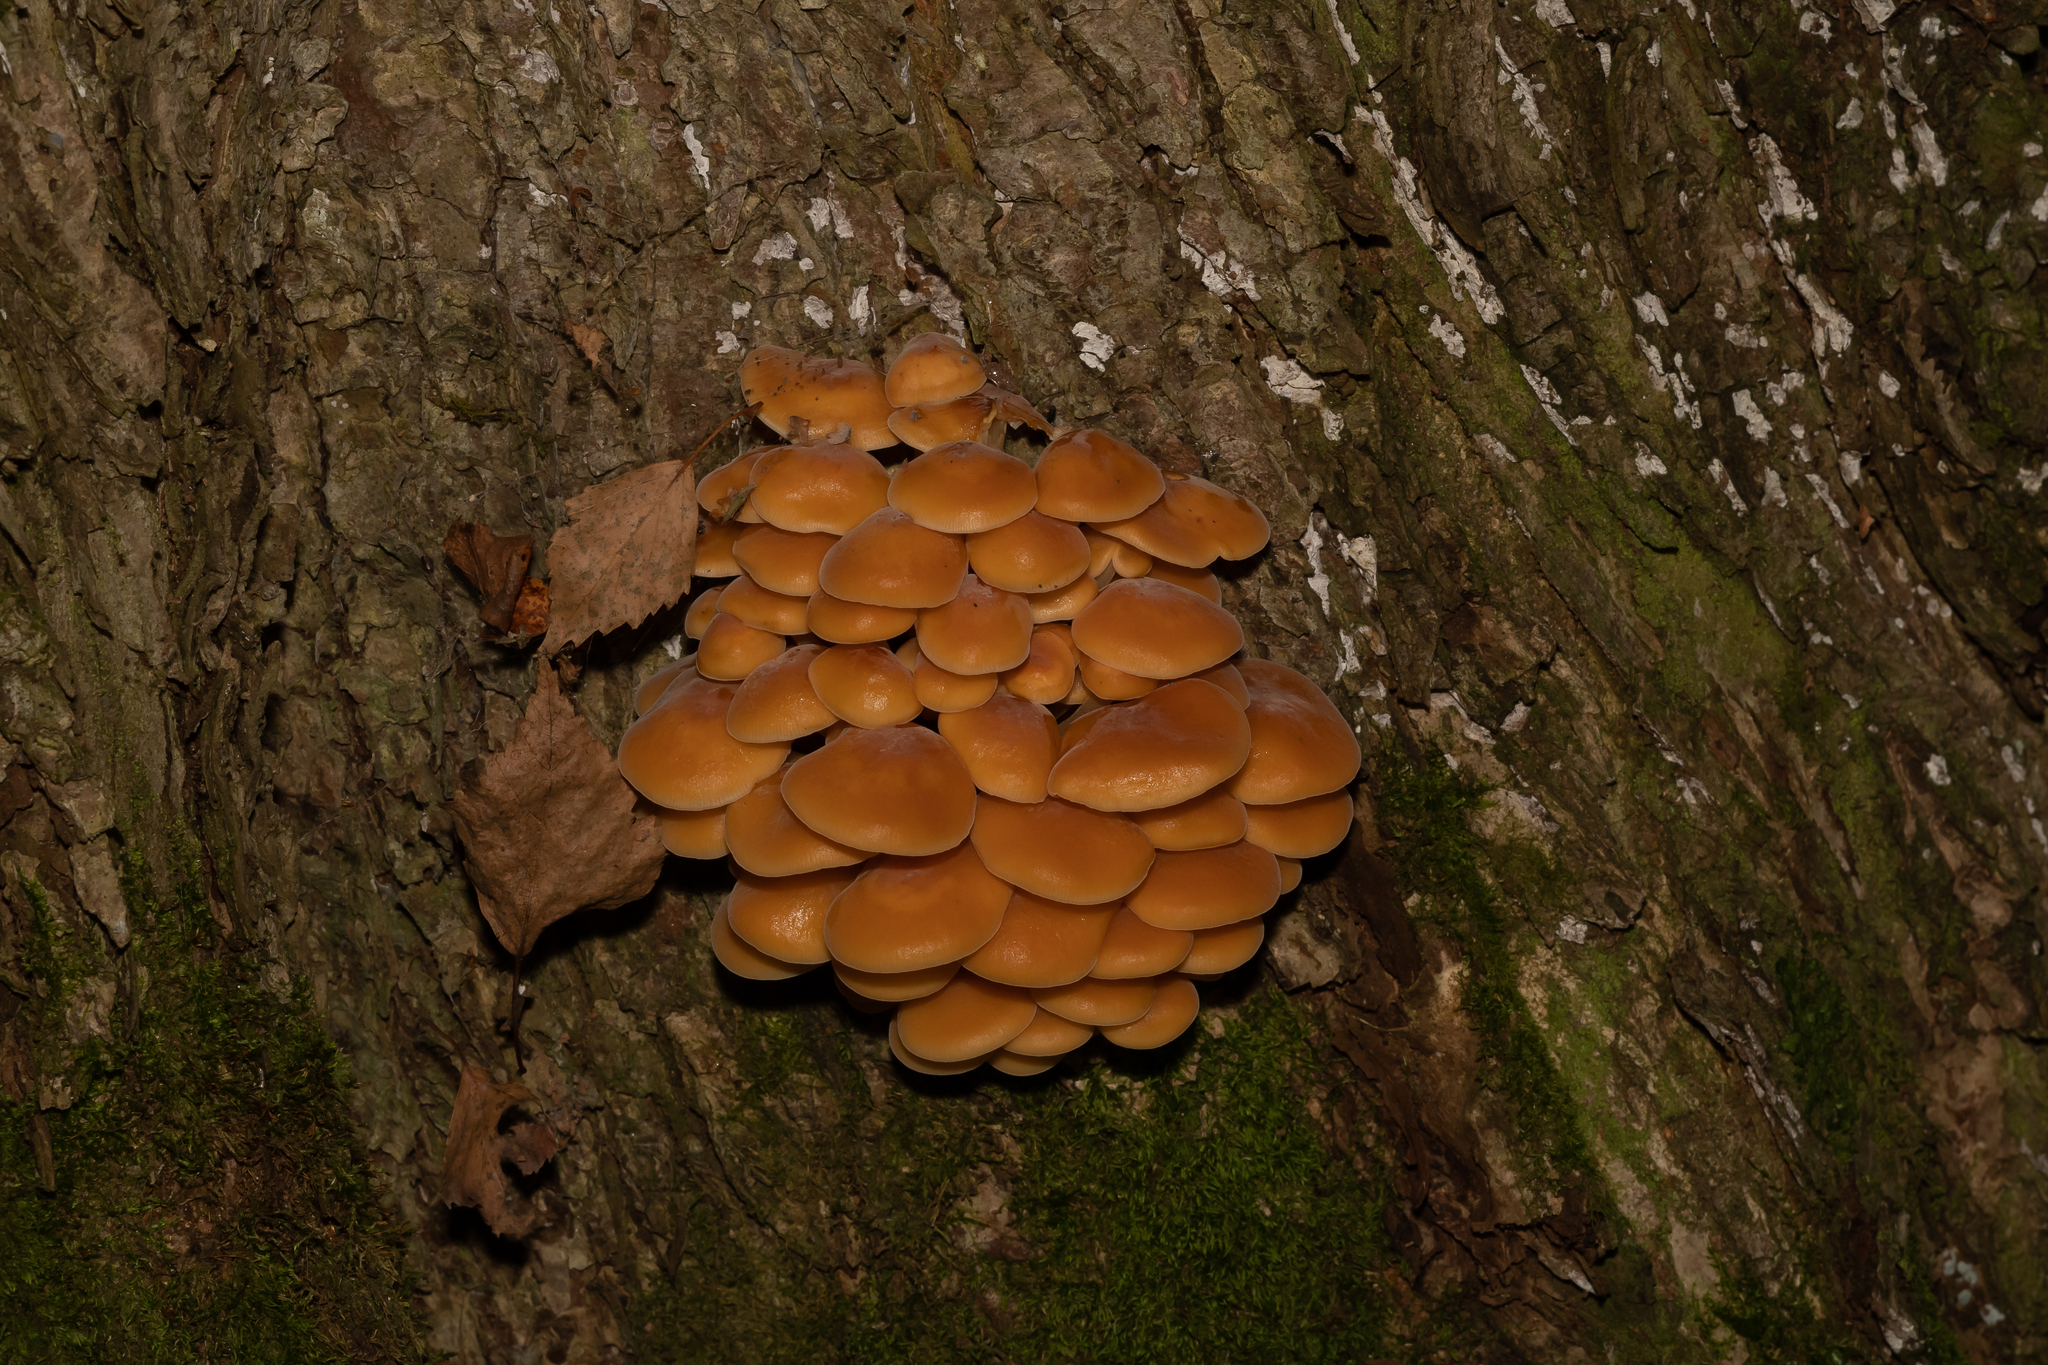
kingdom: Fungi
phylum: Basidiomycota
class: Agaricomycetes
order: Agaricales
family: Physalacriaceae
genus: Flammulina
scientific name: Flammulina
